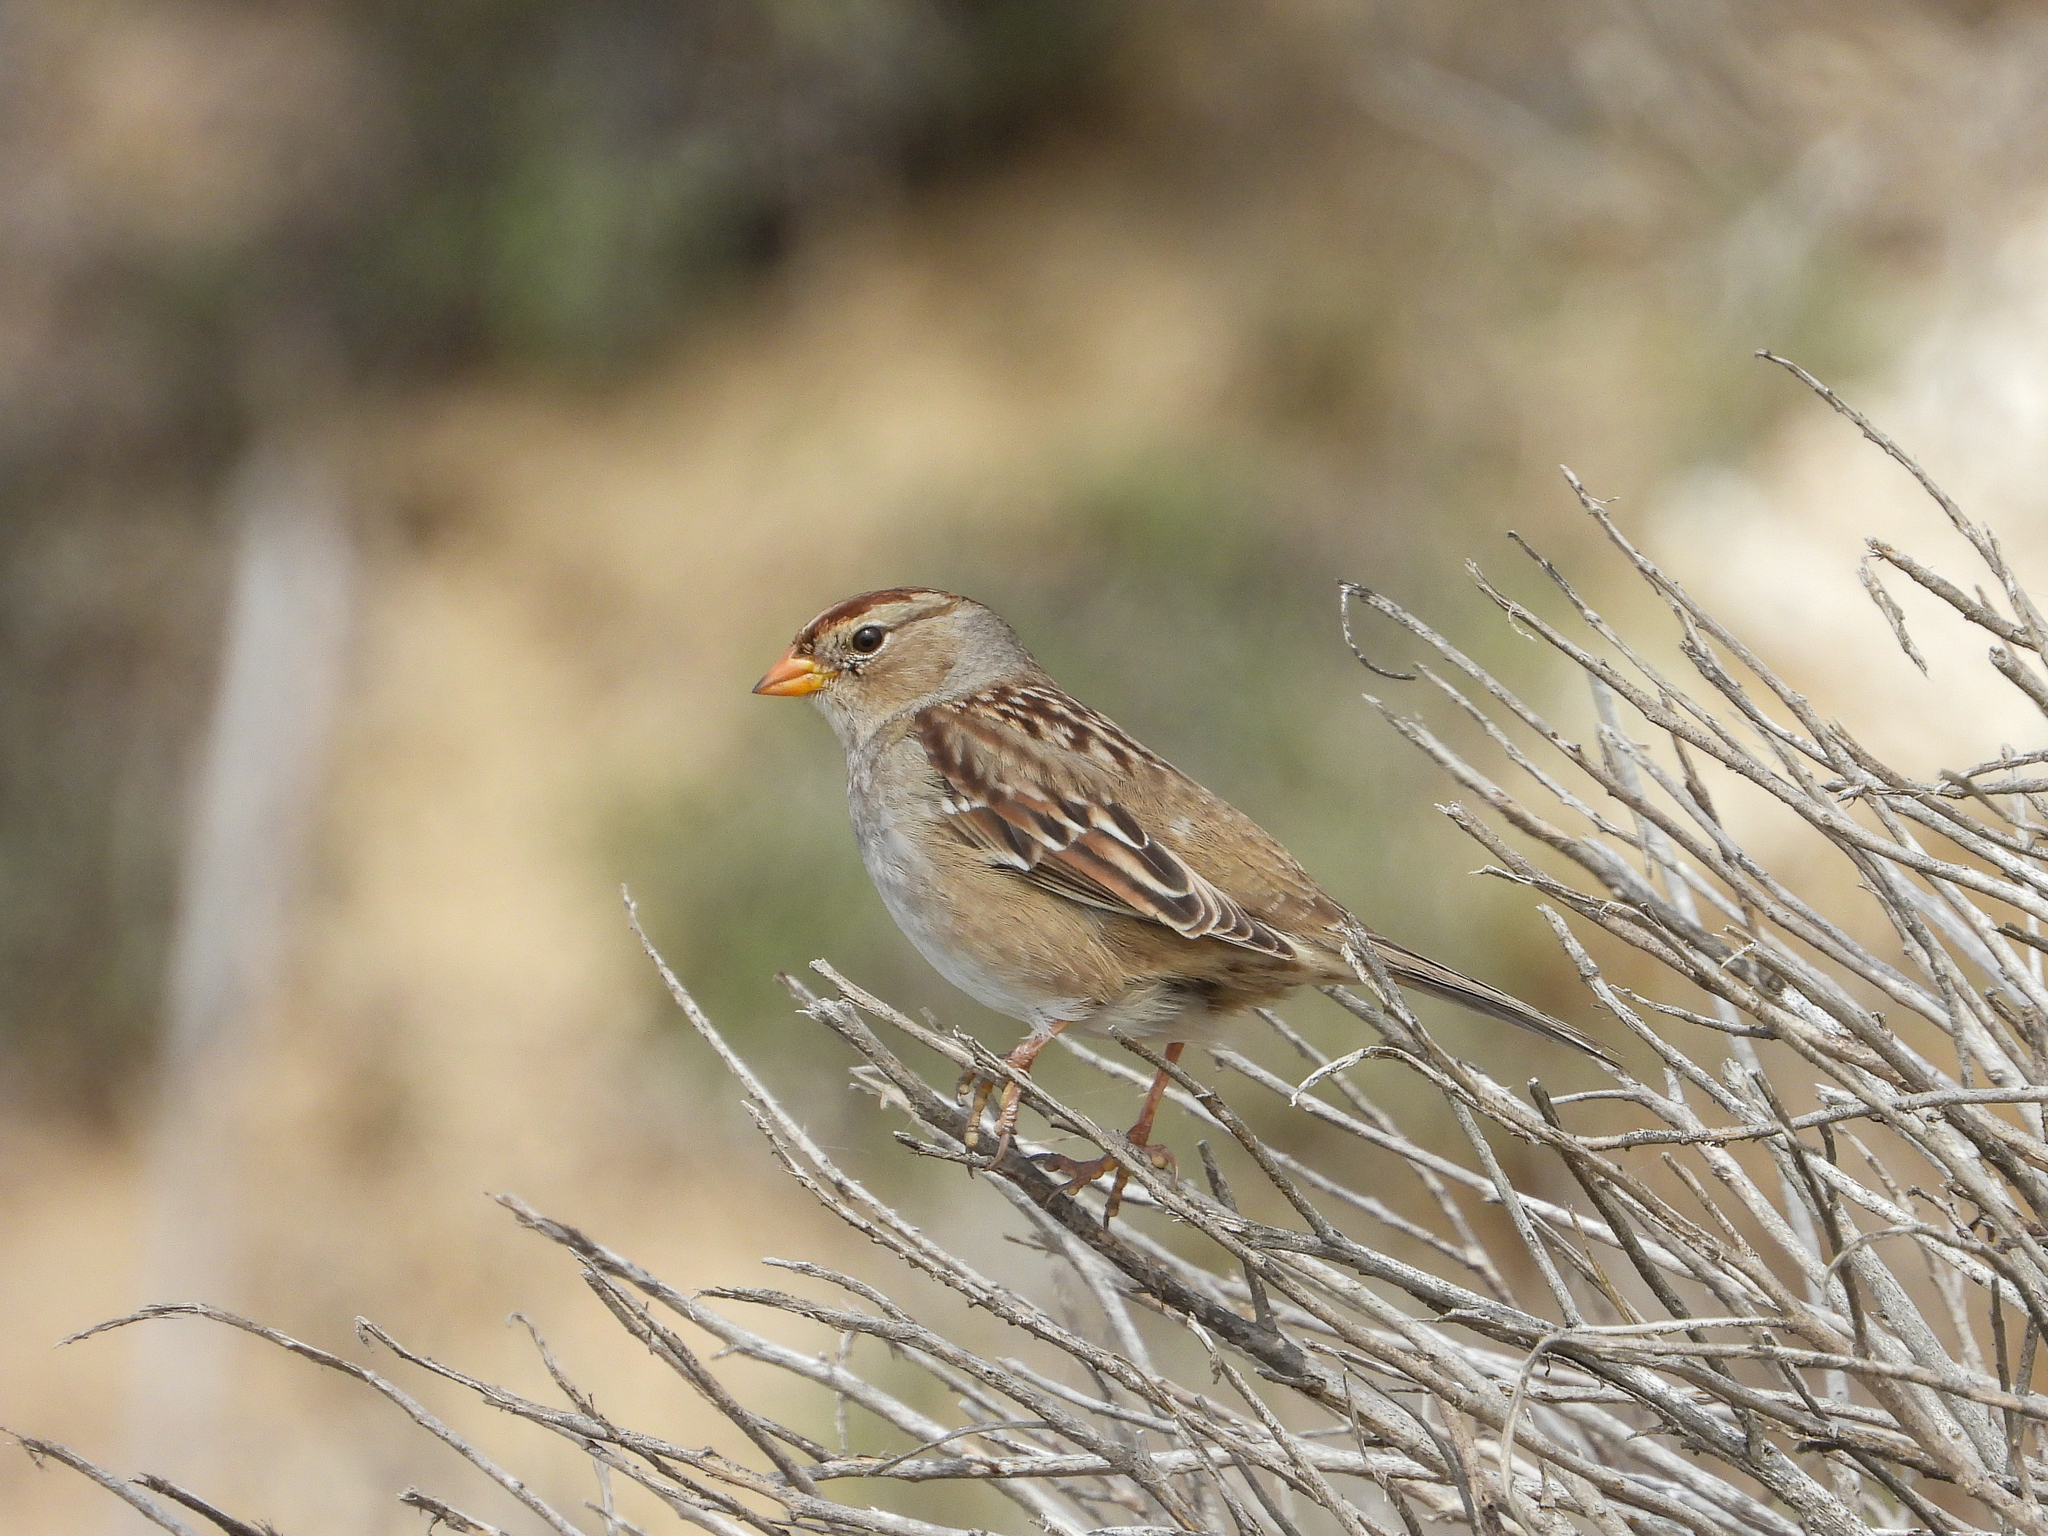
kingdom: Animalia
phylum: Chordata
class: Aves
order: Passeriformes
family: Passerellidae
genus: Zonotrichia
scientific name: Zonotrichia leucophrys
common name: White-crowned sparrow
